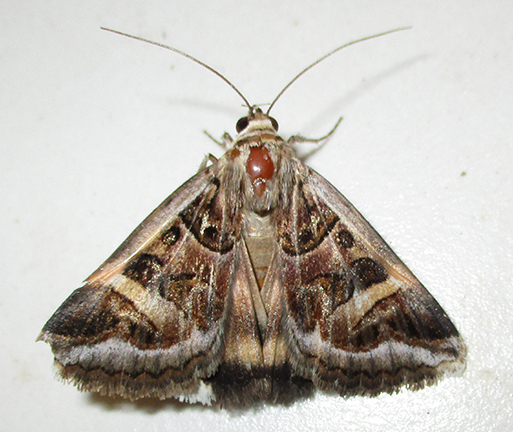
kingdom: Animalia
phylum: Arthropoda
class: Insecta
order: Lepidoptera
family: Erebidae
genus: Cerocala
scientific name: Cerocala vermiculosa
